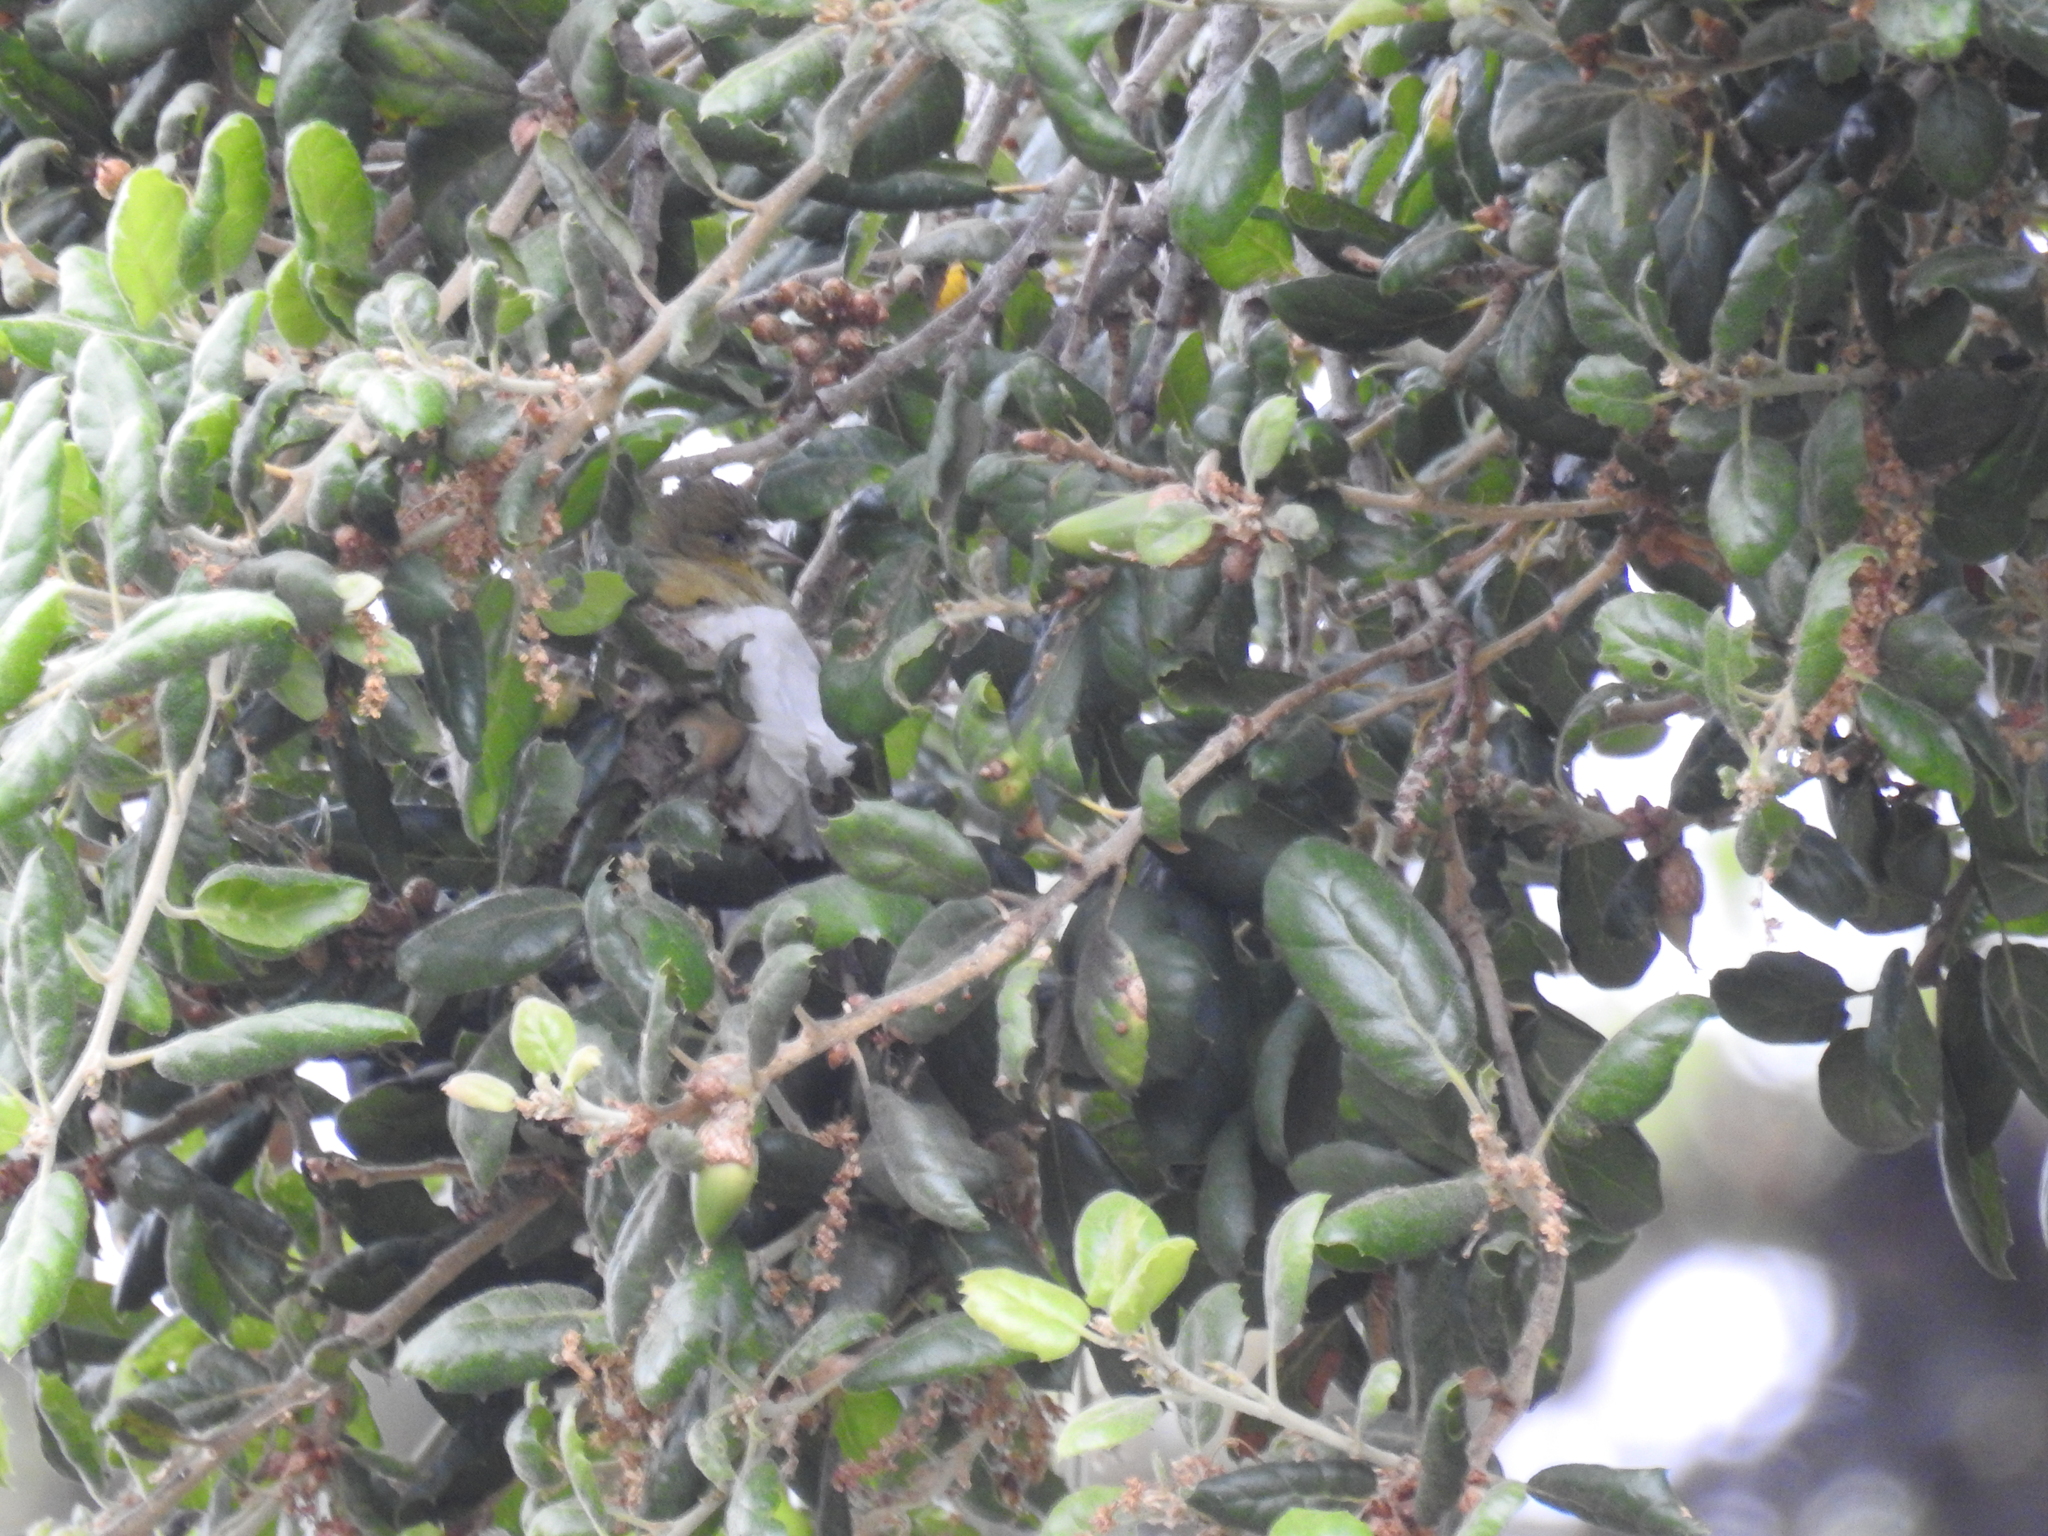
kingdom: Animalia
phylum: Chordata
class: Aves
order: Passeriformes
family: Fringillidae
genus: Spinus
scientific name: Spinus psaltria
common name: Lesser goldfinch
